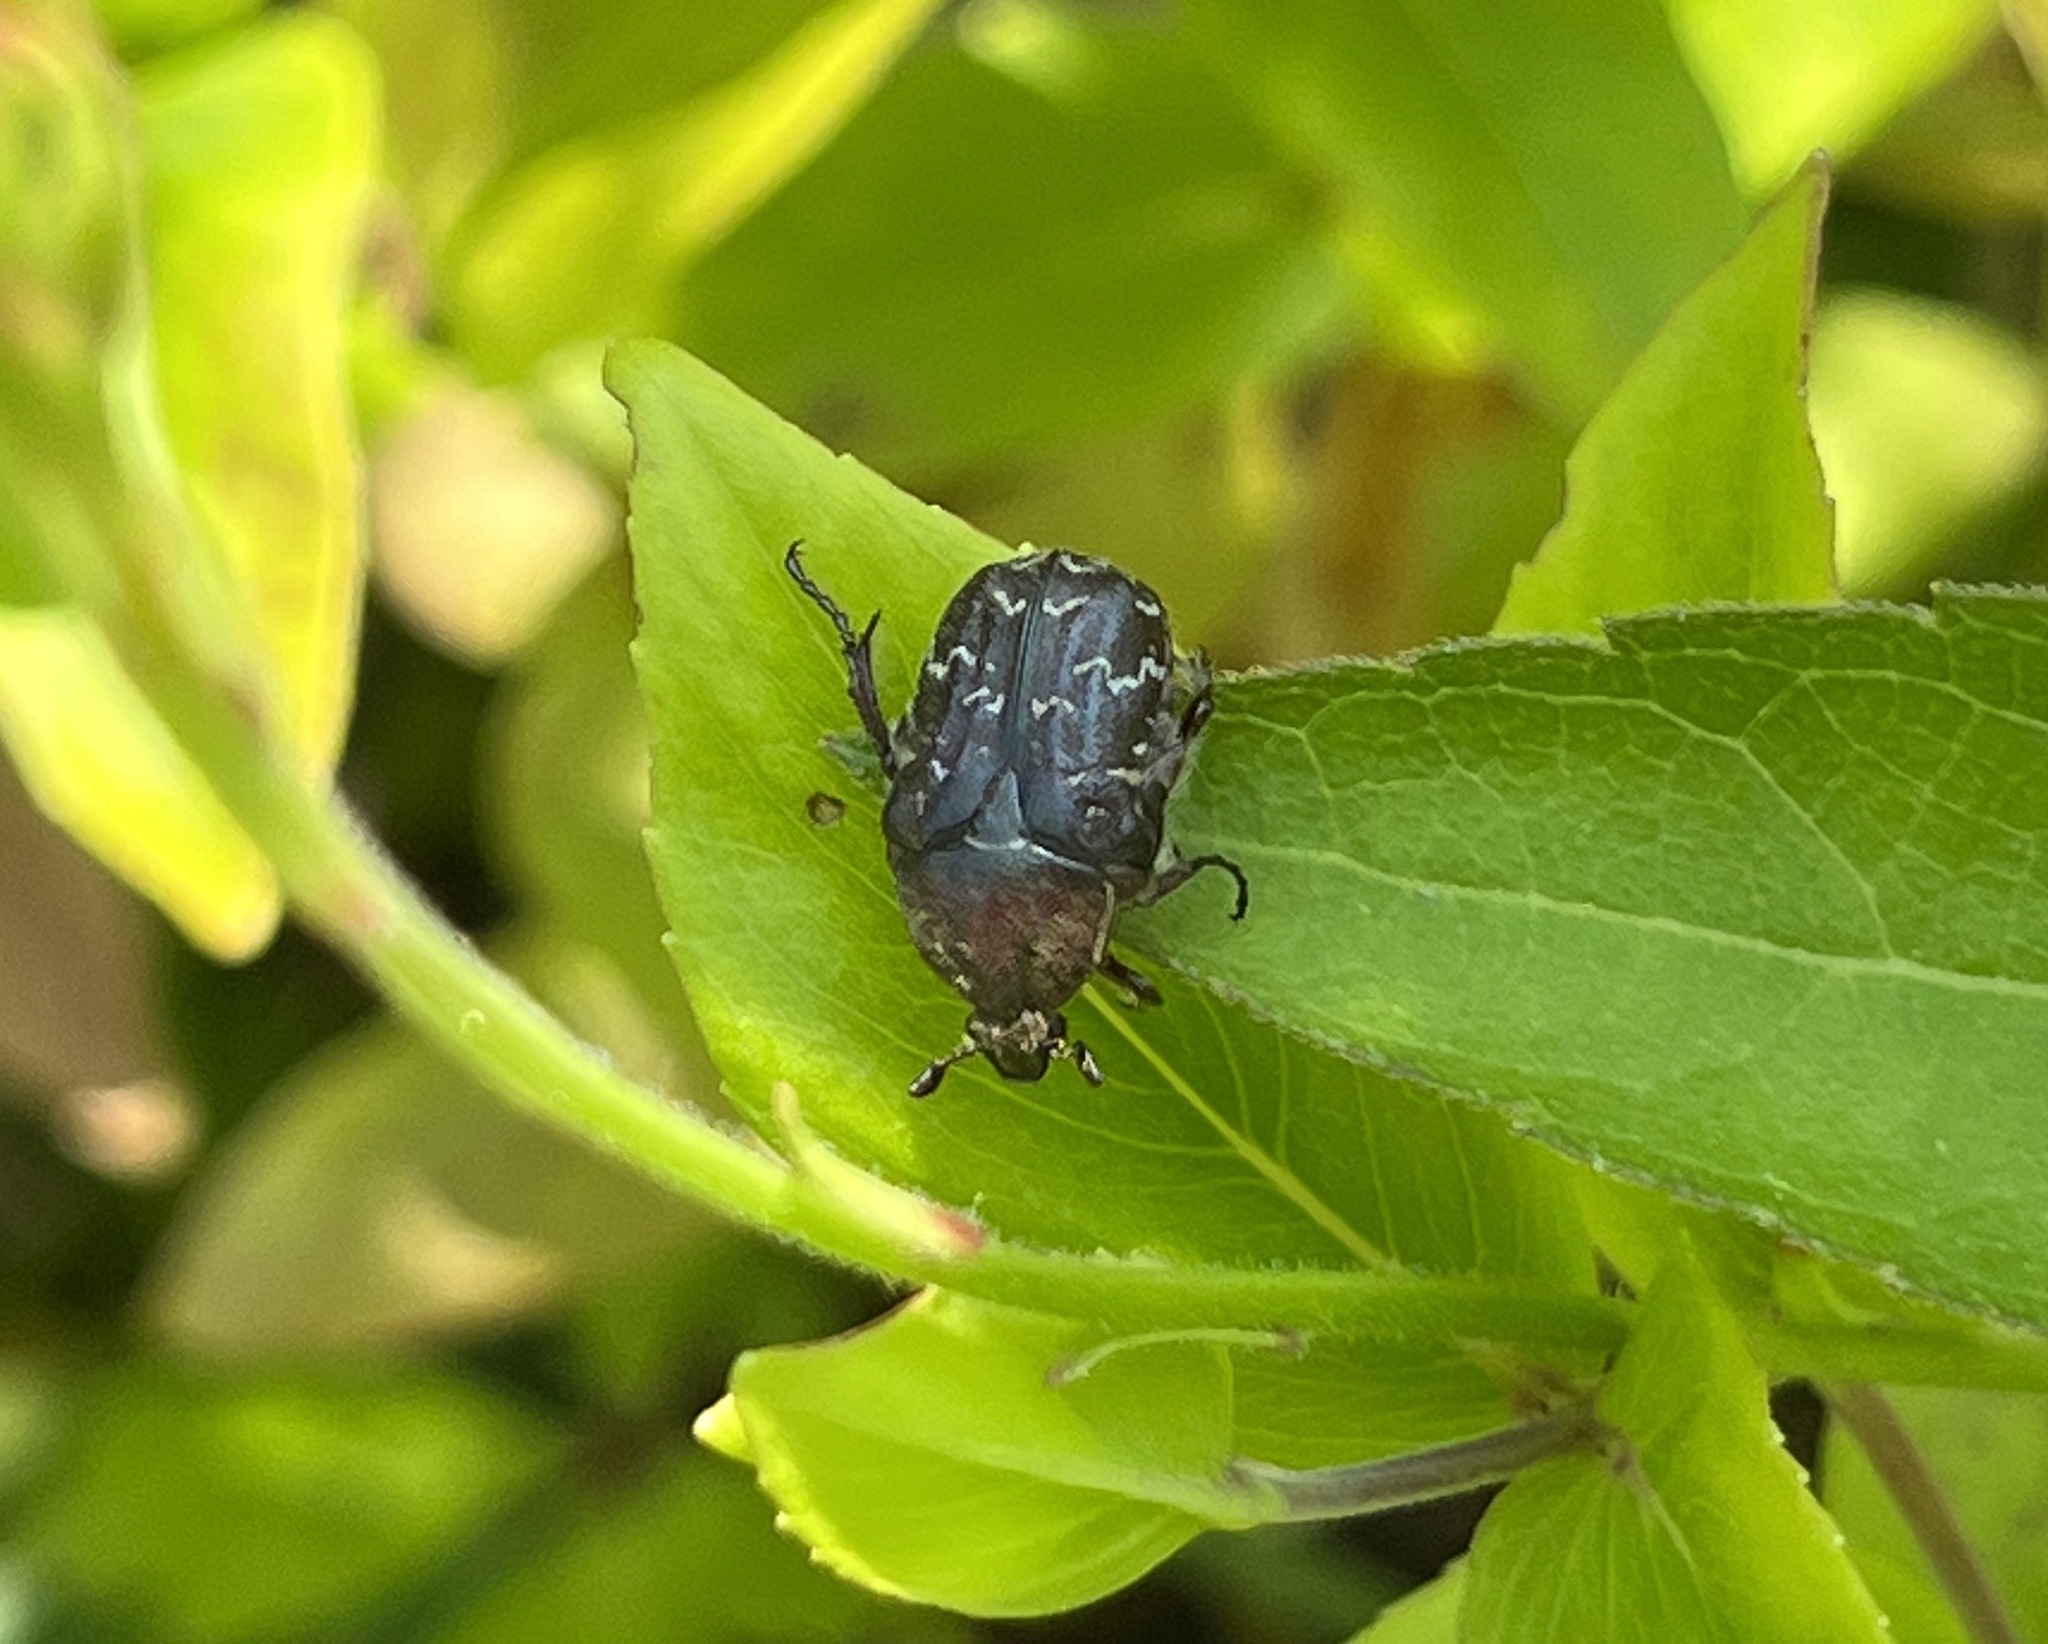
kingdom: Animalia
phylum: Arthropoda
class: Insecta
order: Coleoptera
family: Scarabaeidae
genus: Euphoria
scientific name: Euphoria sepulcralis
